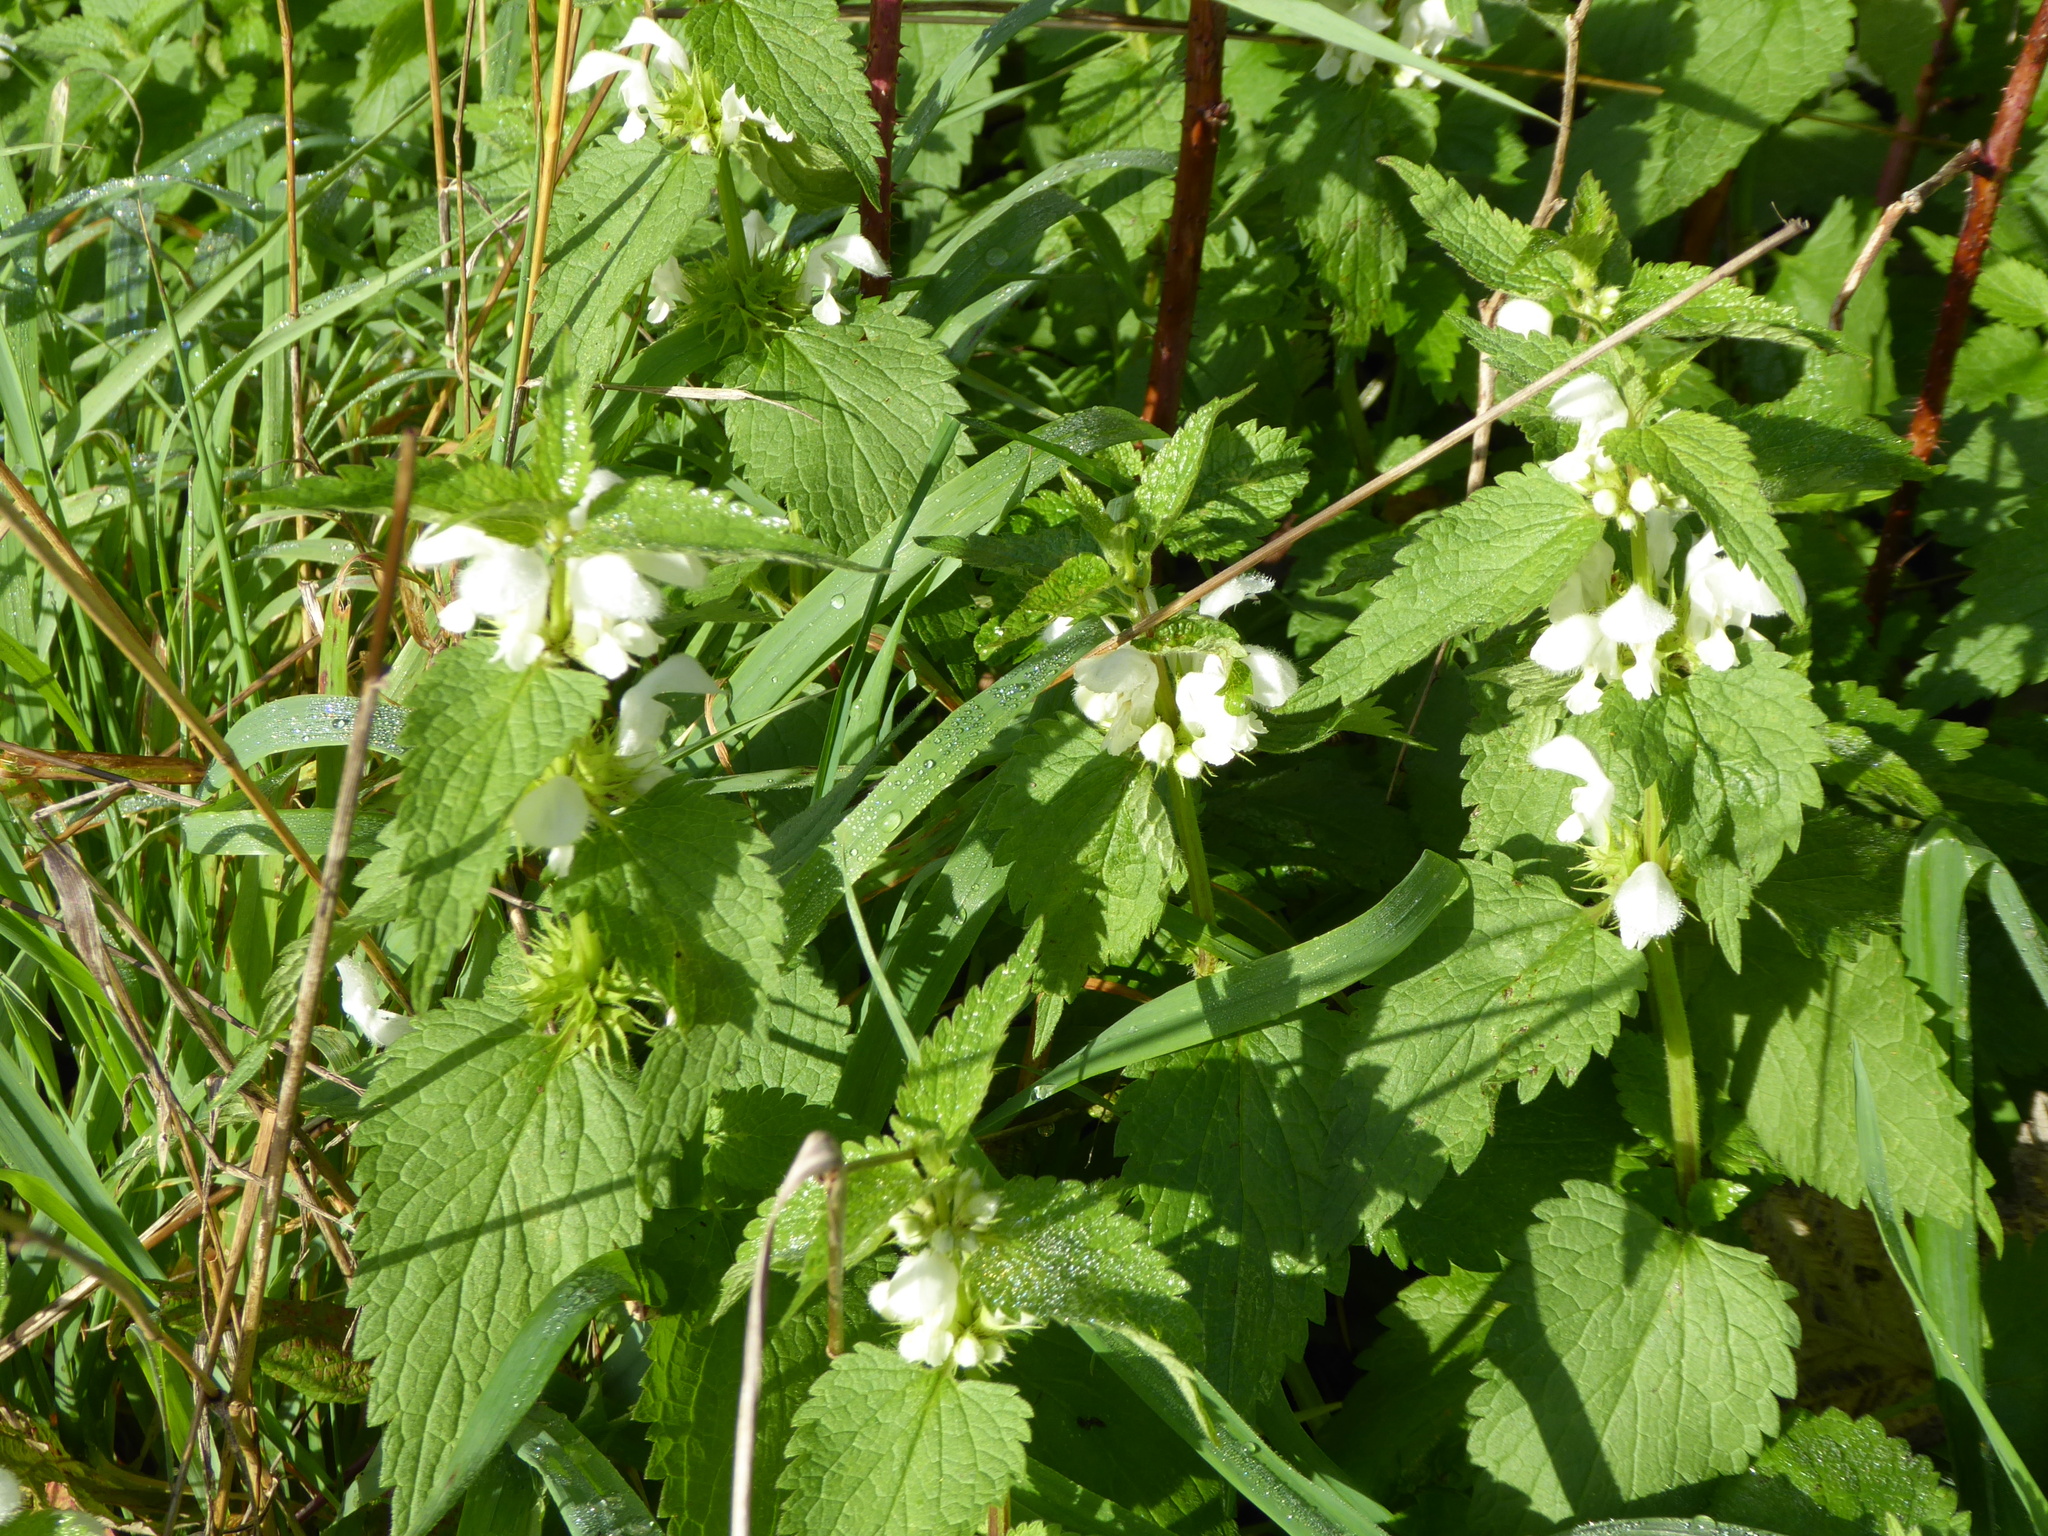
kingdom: Plantae
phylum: Tracheophyta
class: Magnoliopsida
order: Lamiales
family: Lamiaceae
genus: Lamium
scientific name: Lamium album
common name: White dead-nettle
